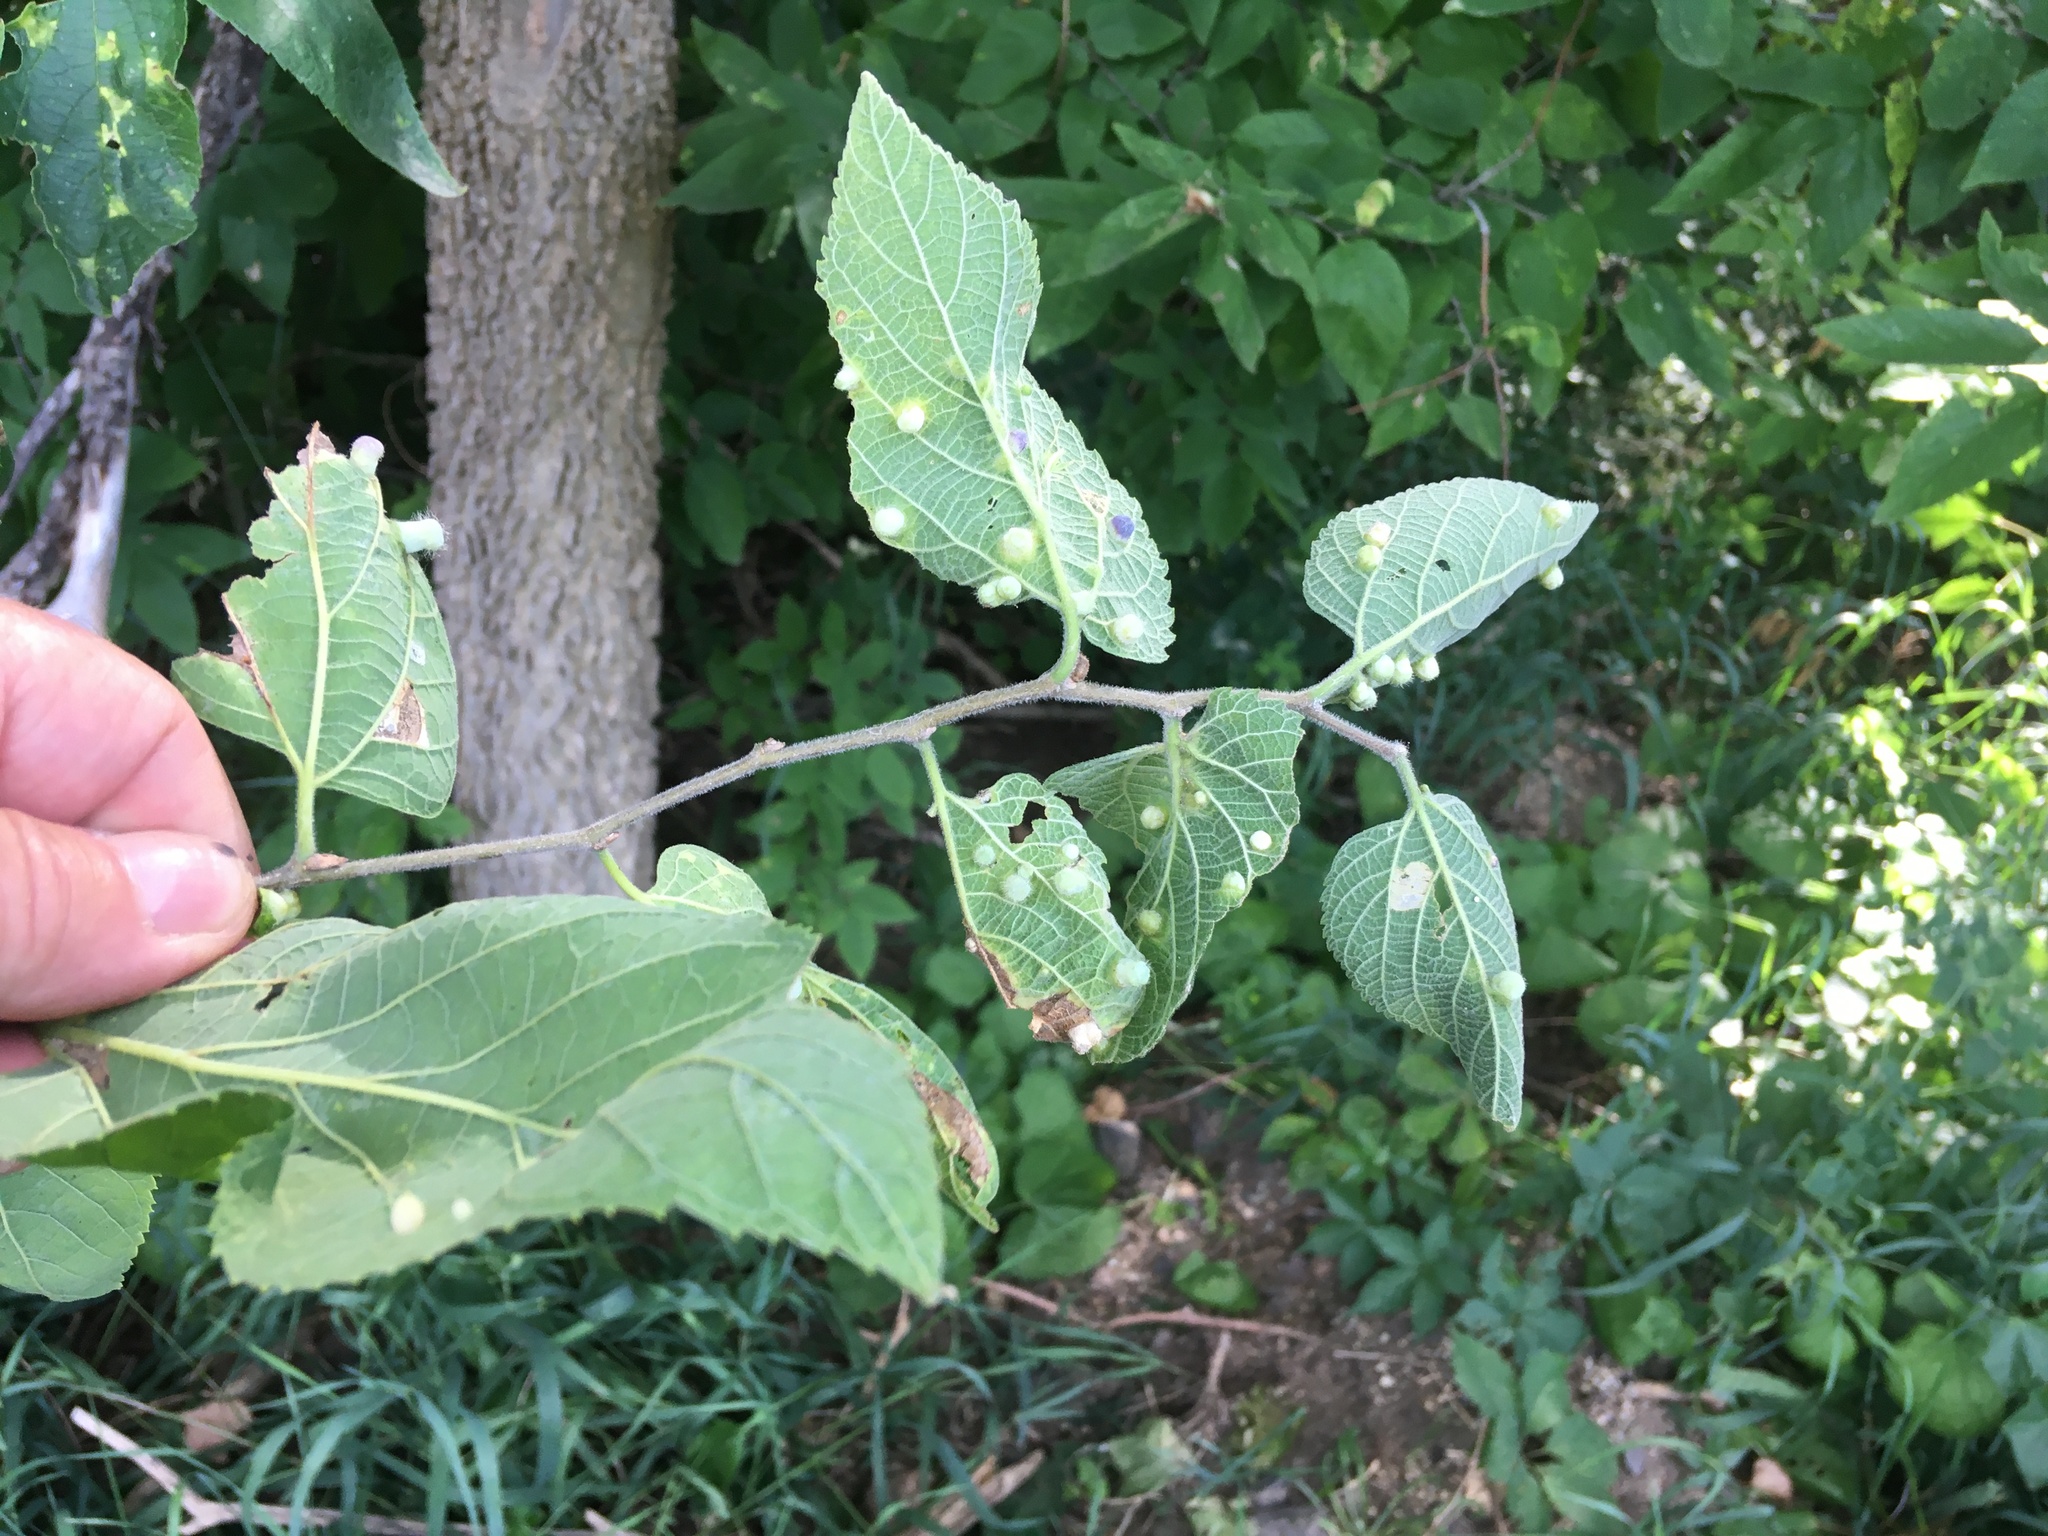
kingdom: Animalia
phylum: Arthropoda
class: Insecta
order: Hemiptera
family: Aphalaridae
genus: Pachypsylla
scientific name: Pachypsylla celtidismamma
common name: Hackberry nipplegall psyllid
